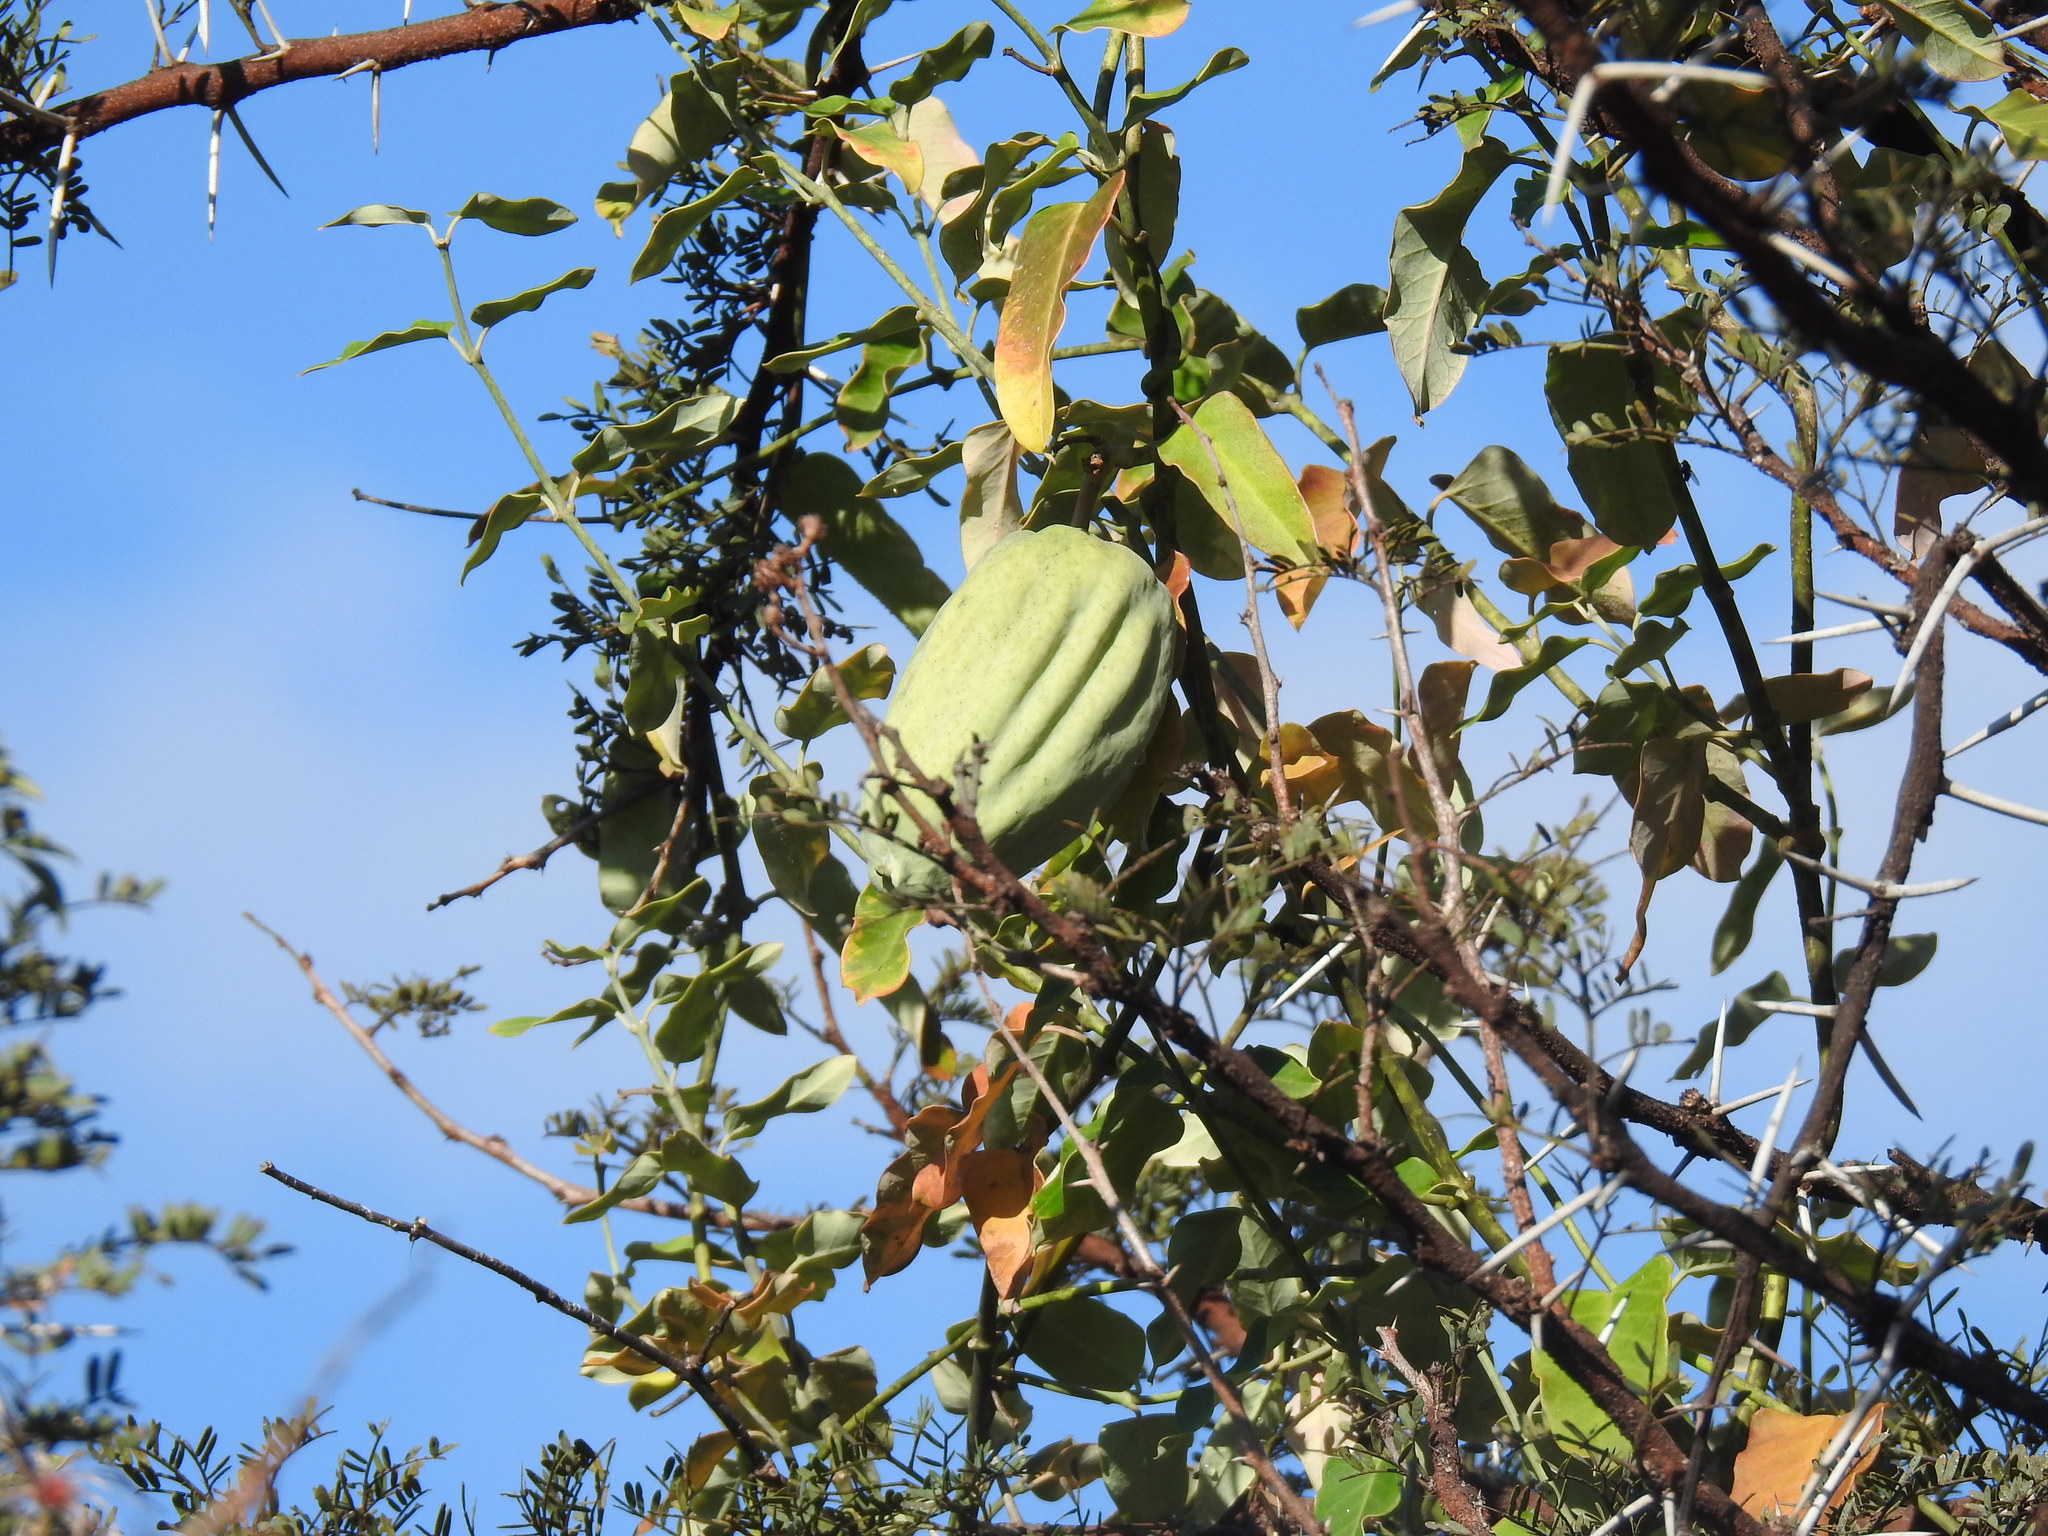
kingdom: Plantae
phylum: Tracheophyta
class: Magnoliopsida
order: Gentianales
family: Apocynaceae
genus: Araujia
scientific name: Araujia sericifera
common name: White bladderflower
